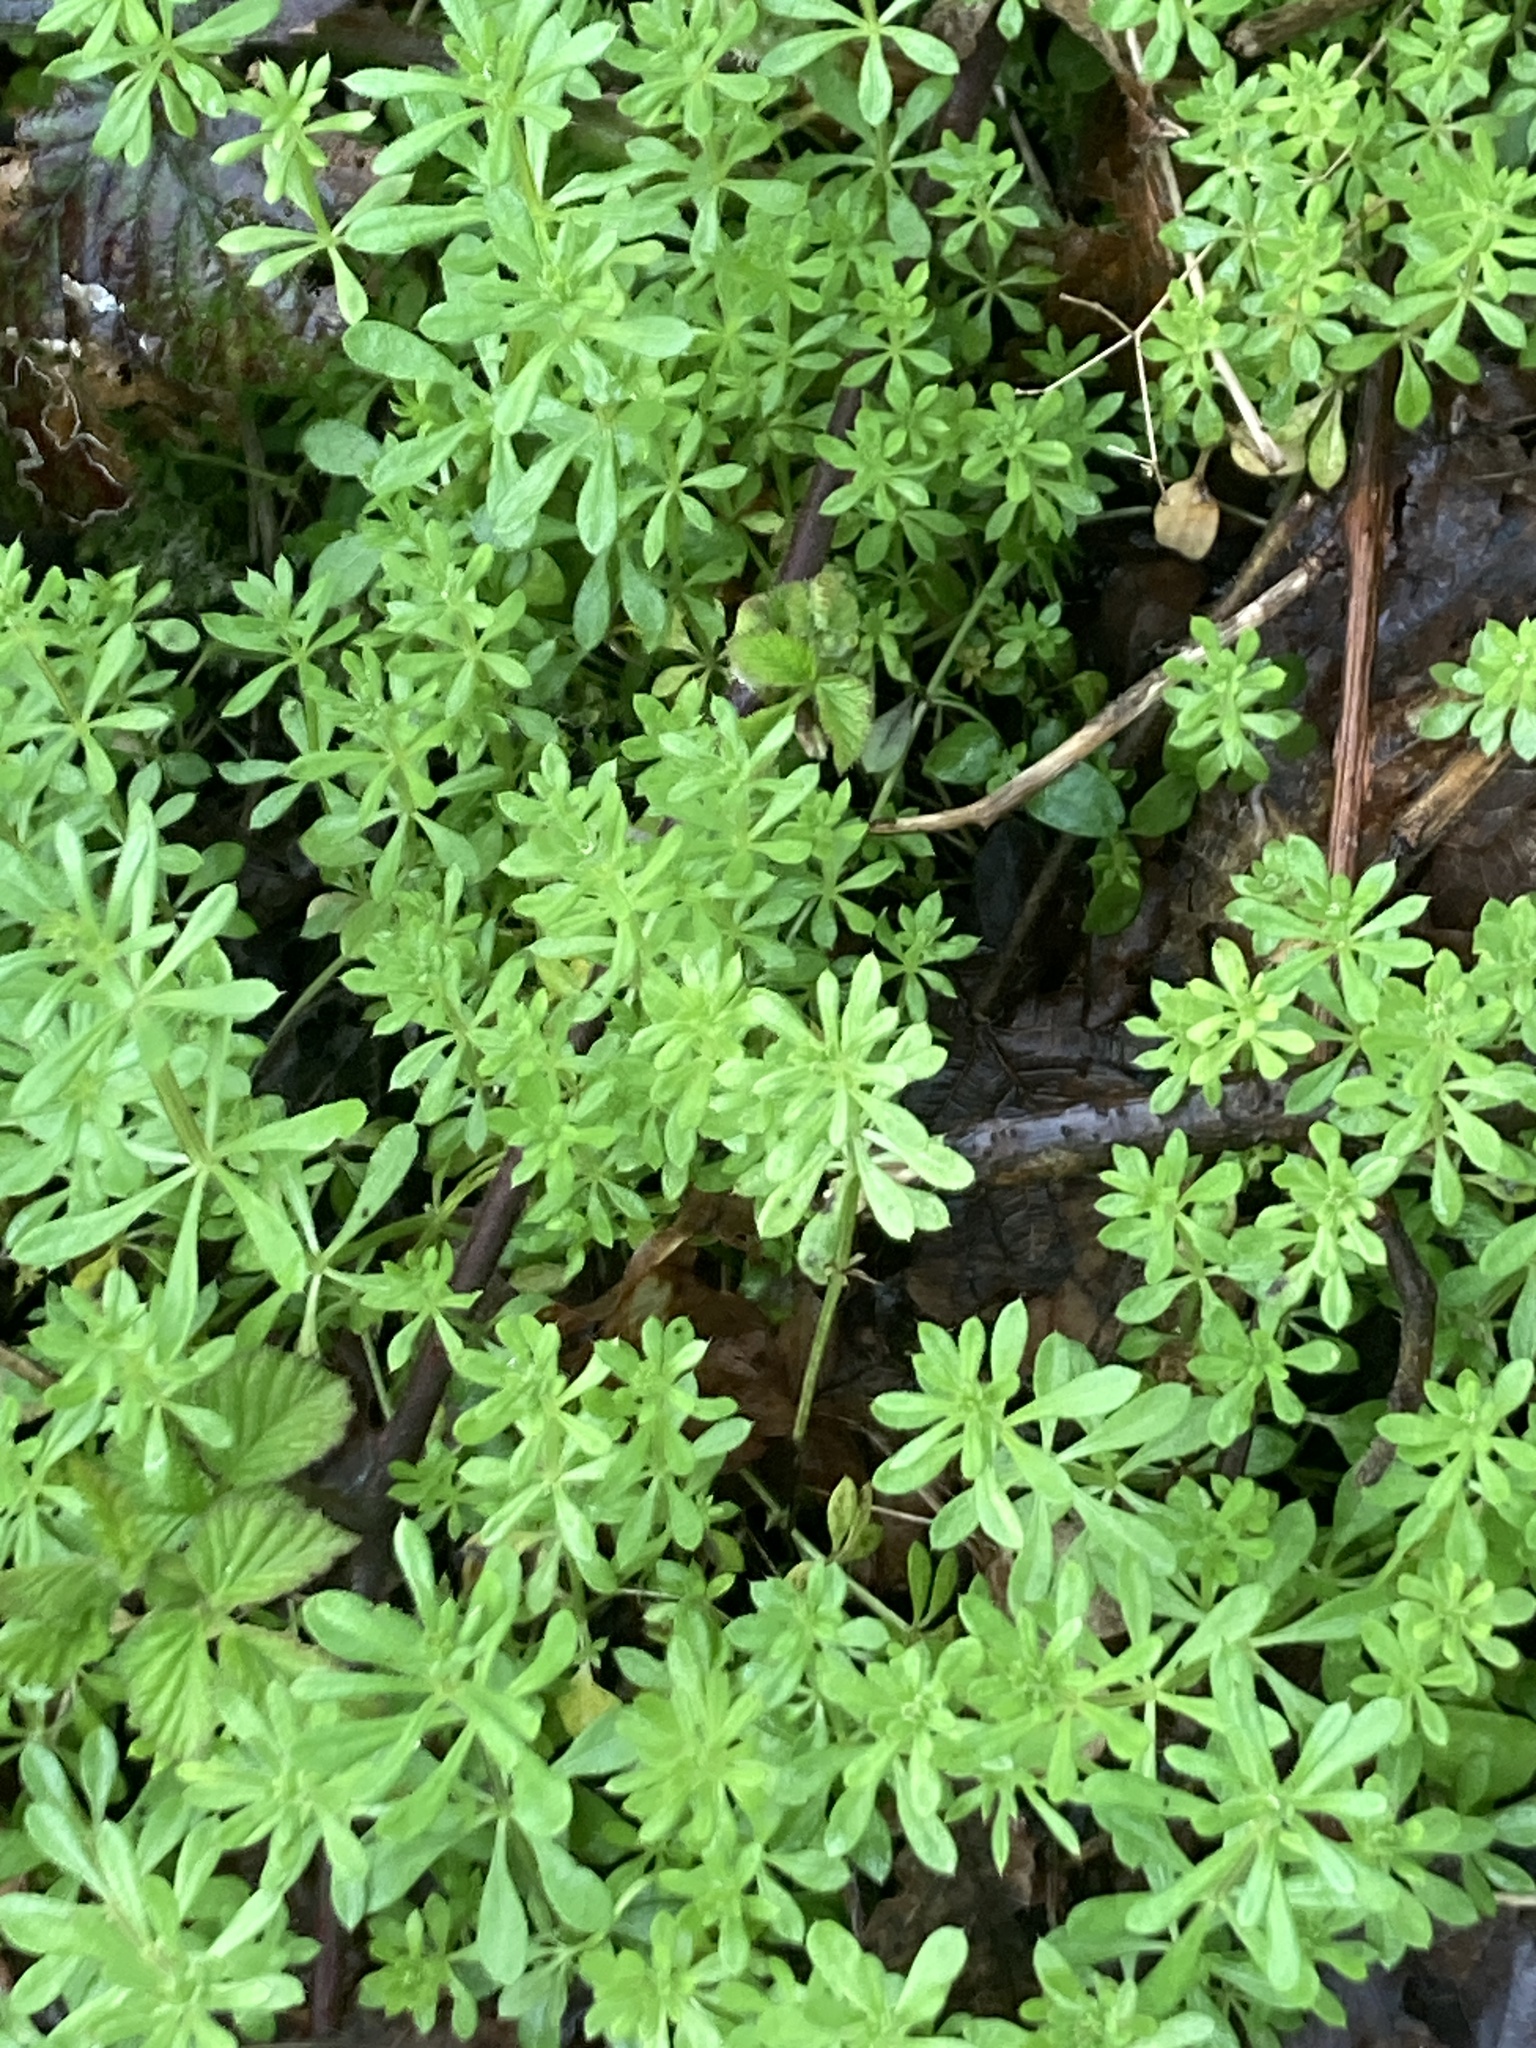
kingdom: Plantae
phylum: Tracheophyta
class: Magnoliopsida
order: Gentianales
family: Rubiaceae
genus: Galium
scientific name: Galium aparine
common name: Cleavers
